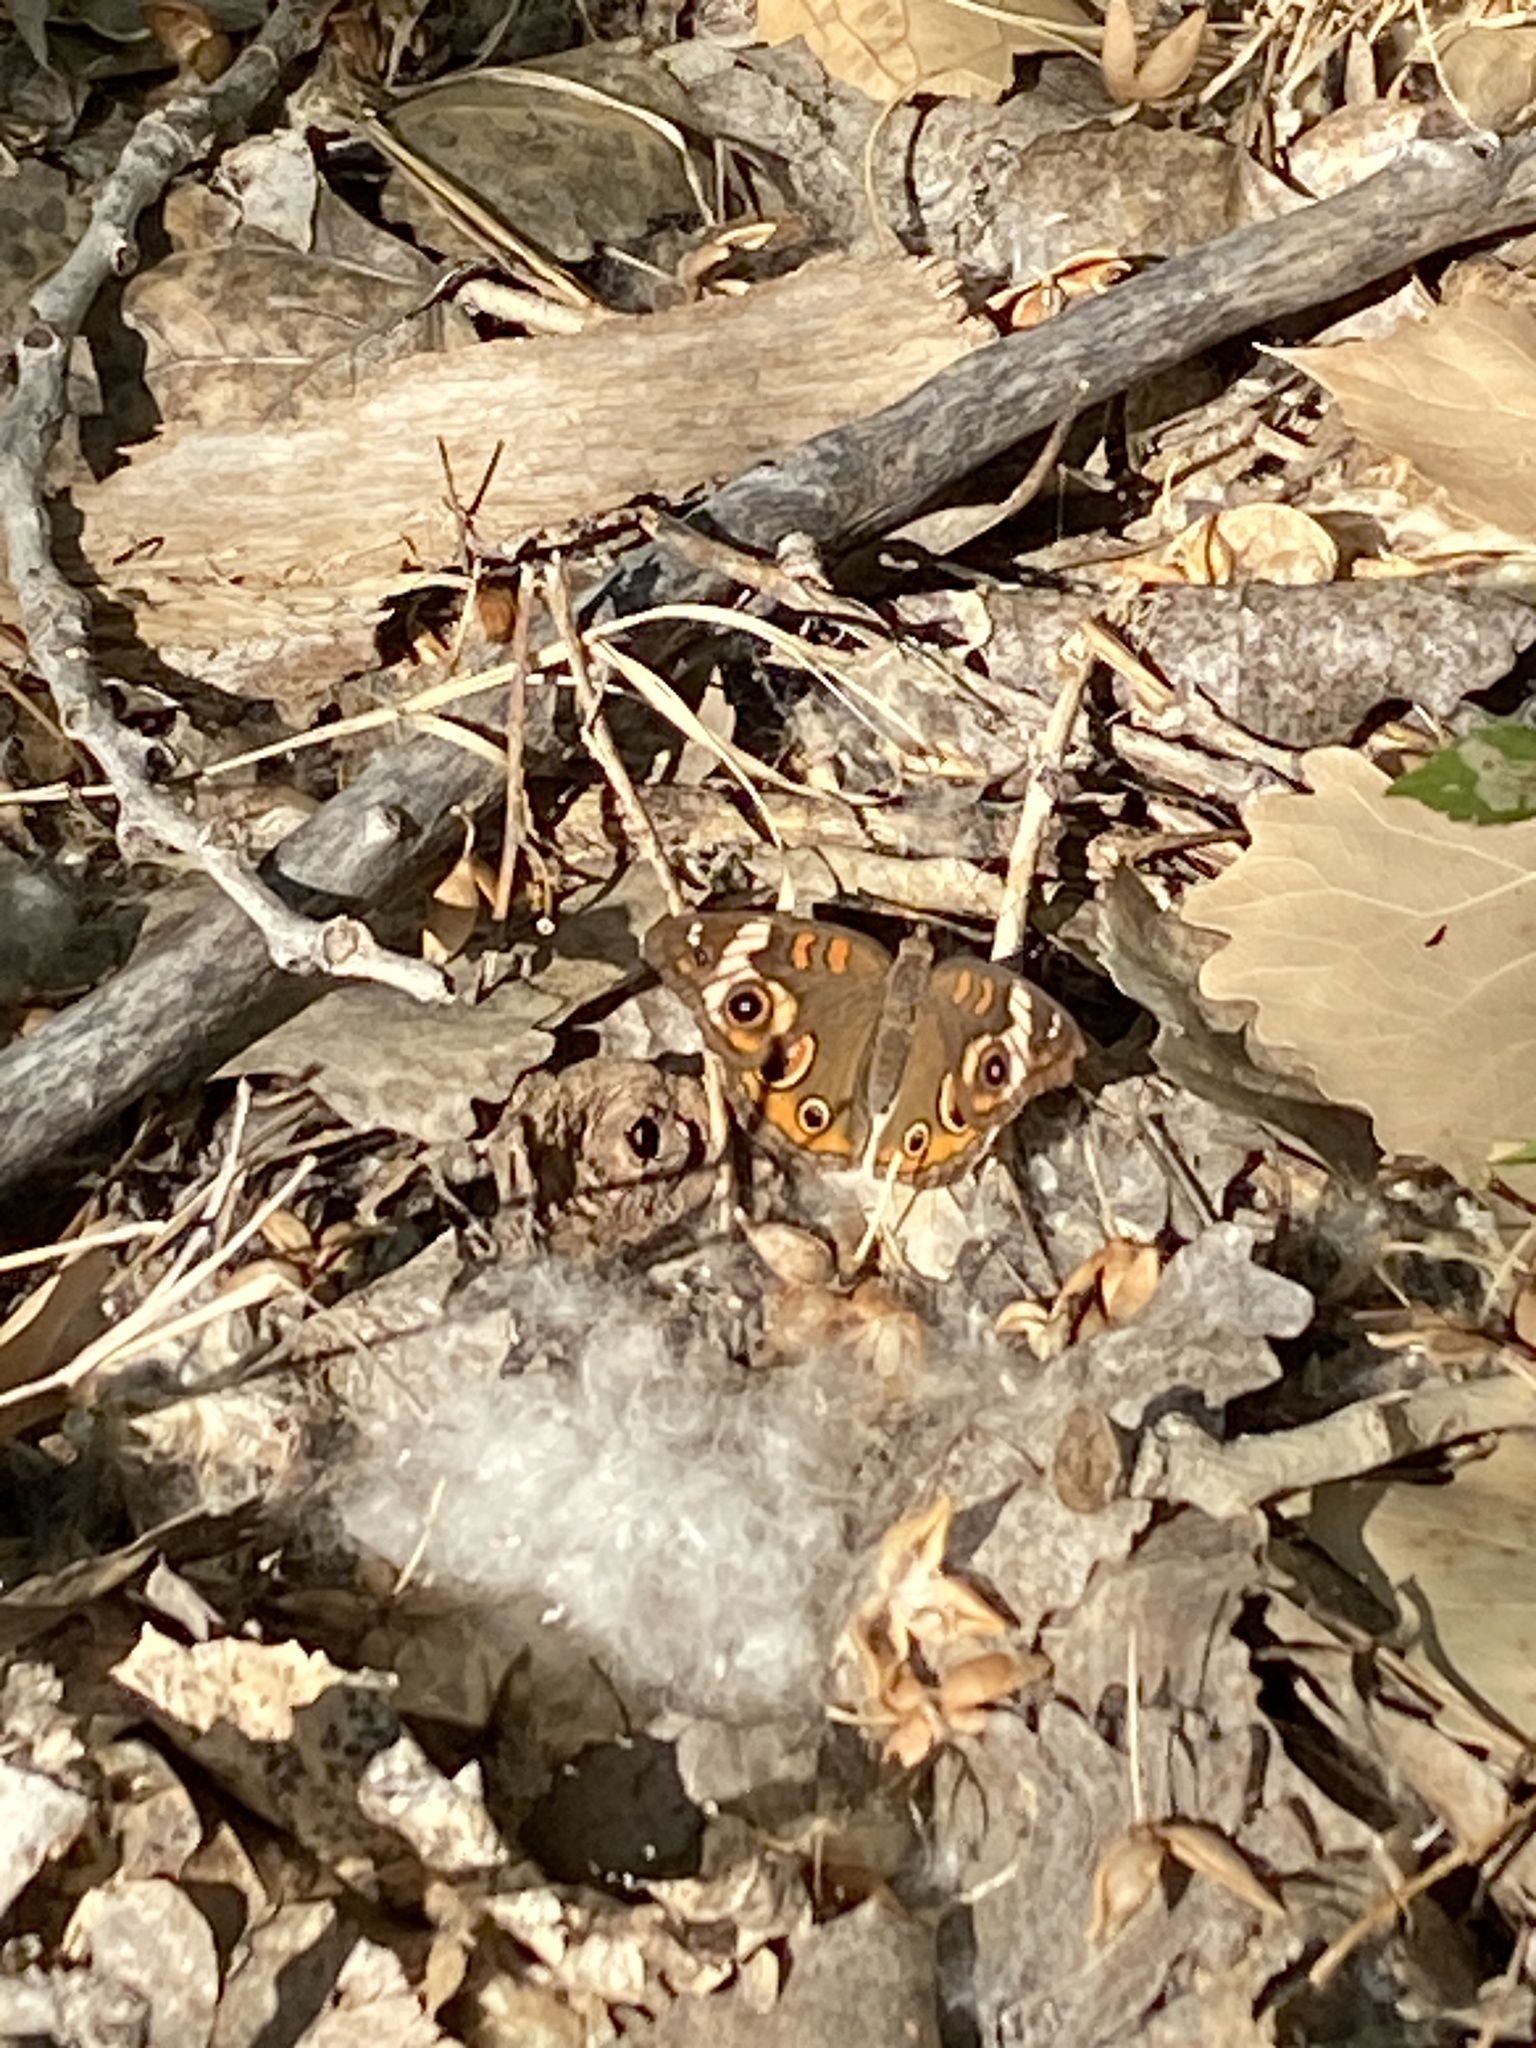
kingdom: Animalia
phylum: Arthropoda
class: Insecta
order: Lepidoptera
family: Nymphalidae
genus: Junonia
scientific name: Junonia coenia
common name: Common buckeye
